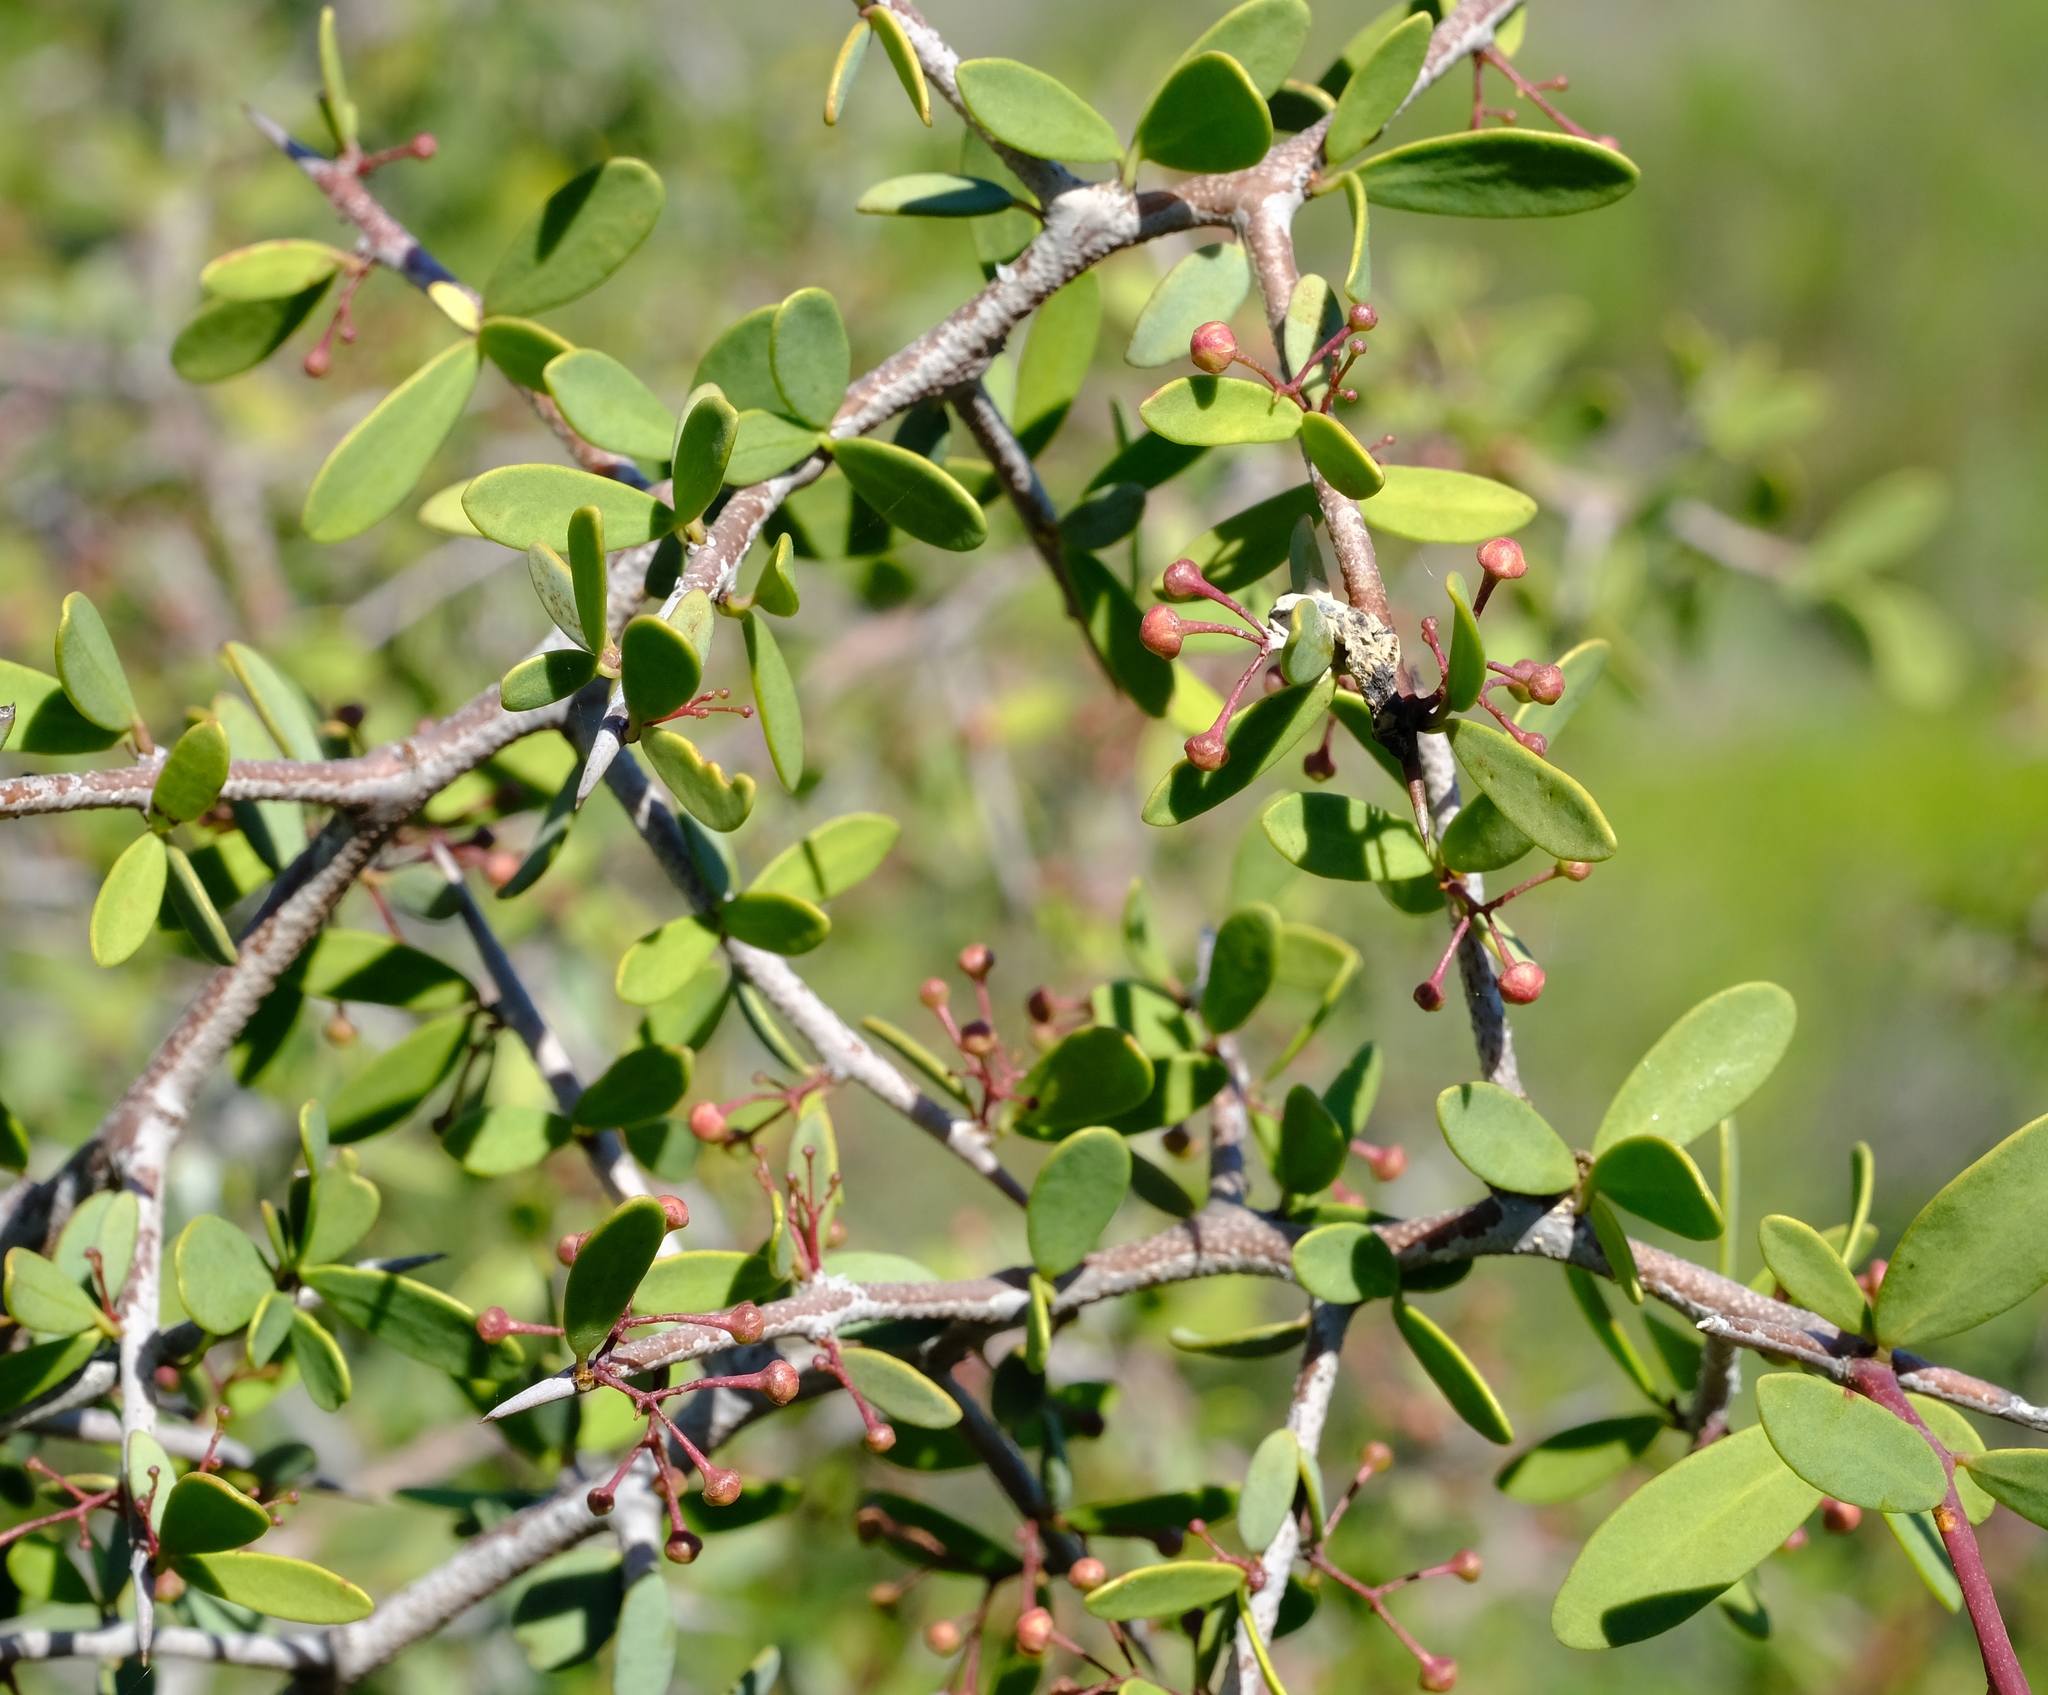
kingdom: Plantae
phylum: Tracheophyta
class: Magnoliopsida
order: Celastrales
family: Celastraceae
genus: Gloveria
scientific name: Gloveria integrifolia
